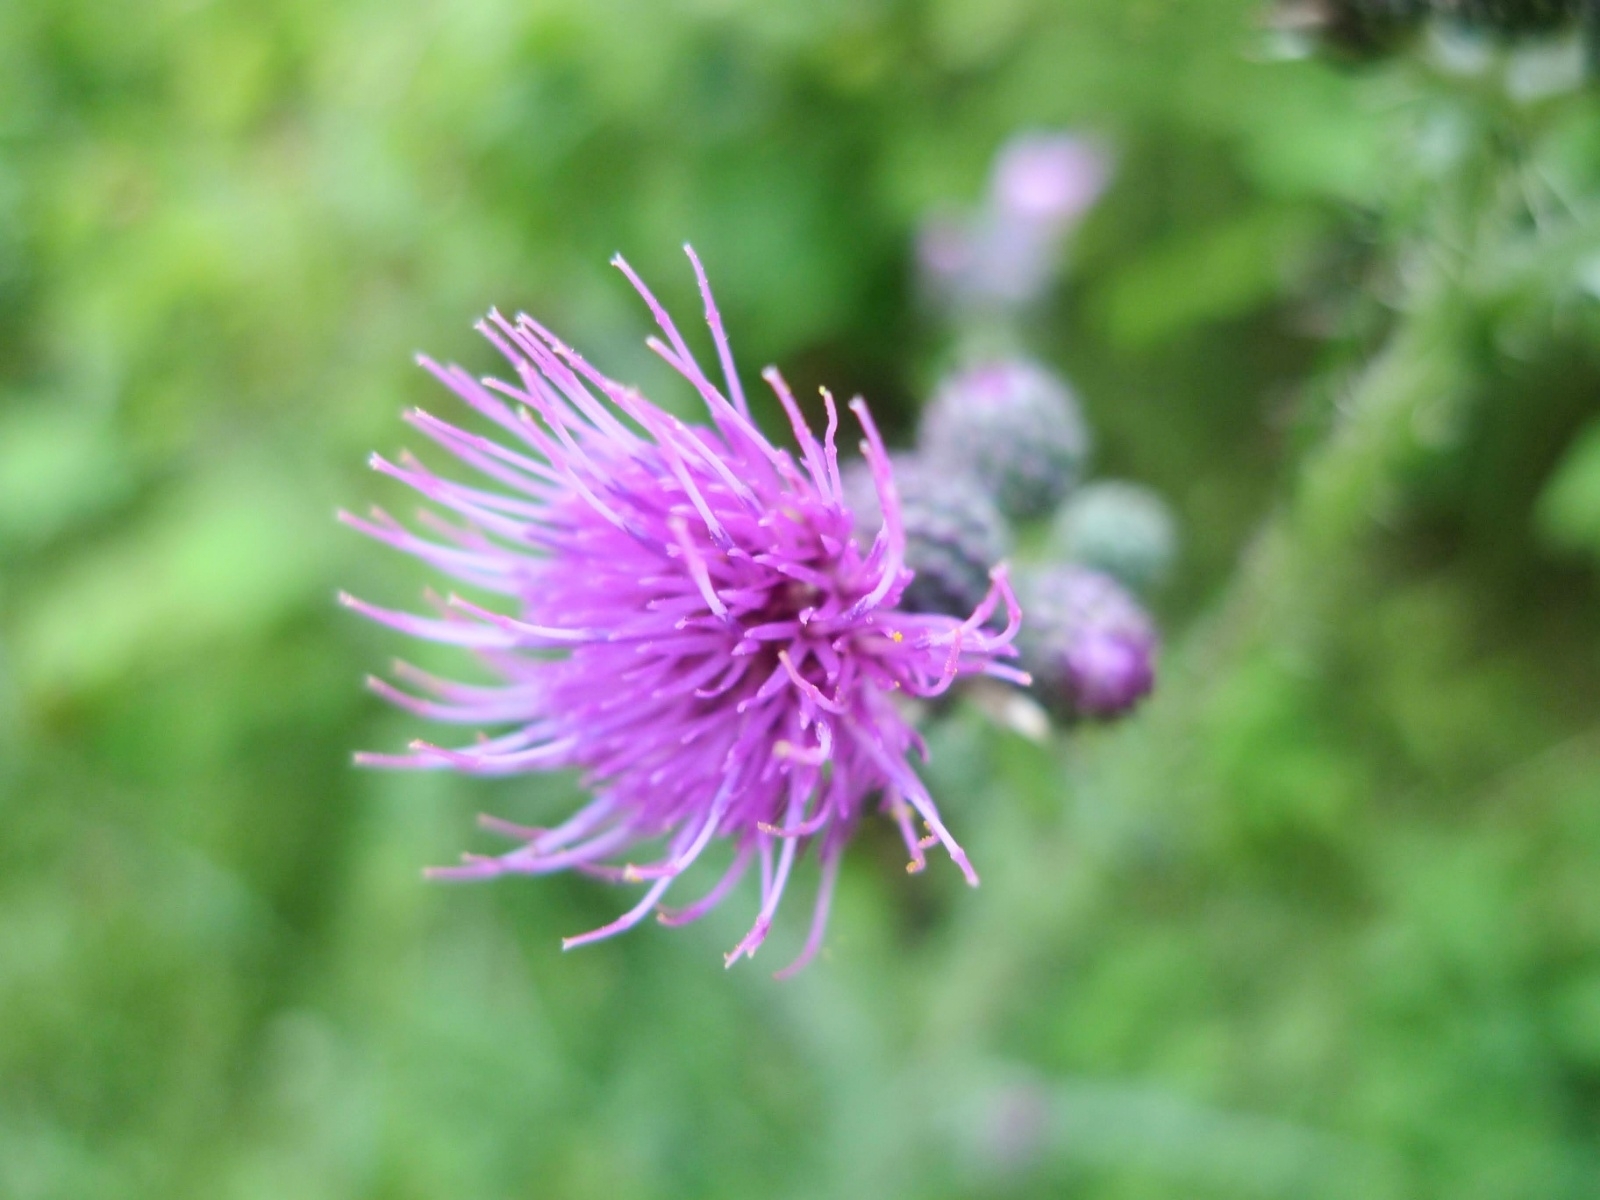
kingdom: Plantae
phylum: Tracheophyta
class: Magnoliopsida
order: Asterales
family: Asteraceae
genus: Cirsium
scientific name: Cirsium palustre
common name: Marsh thistle
